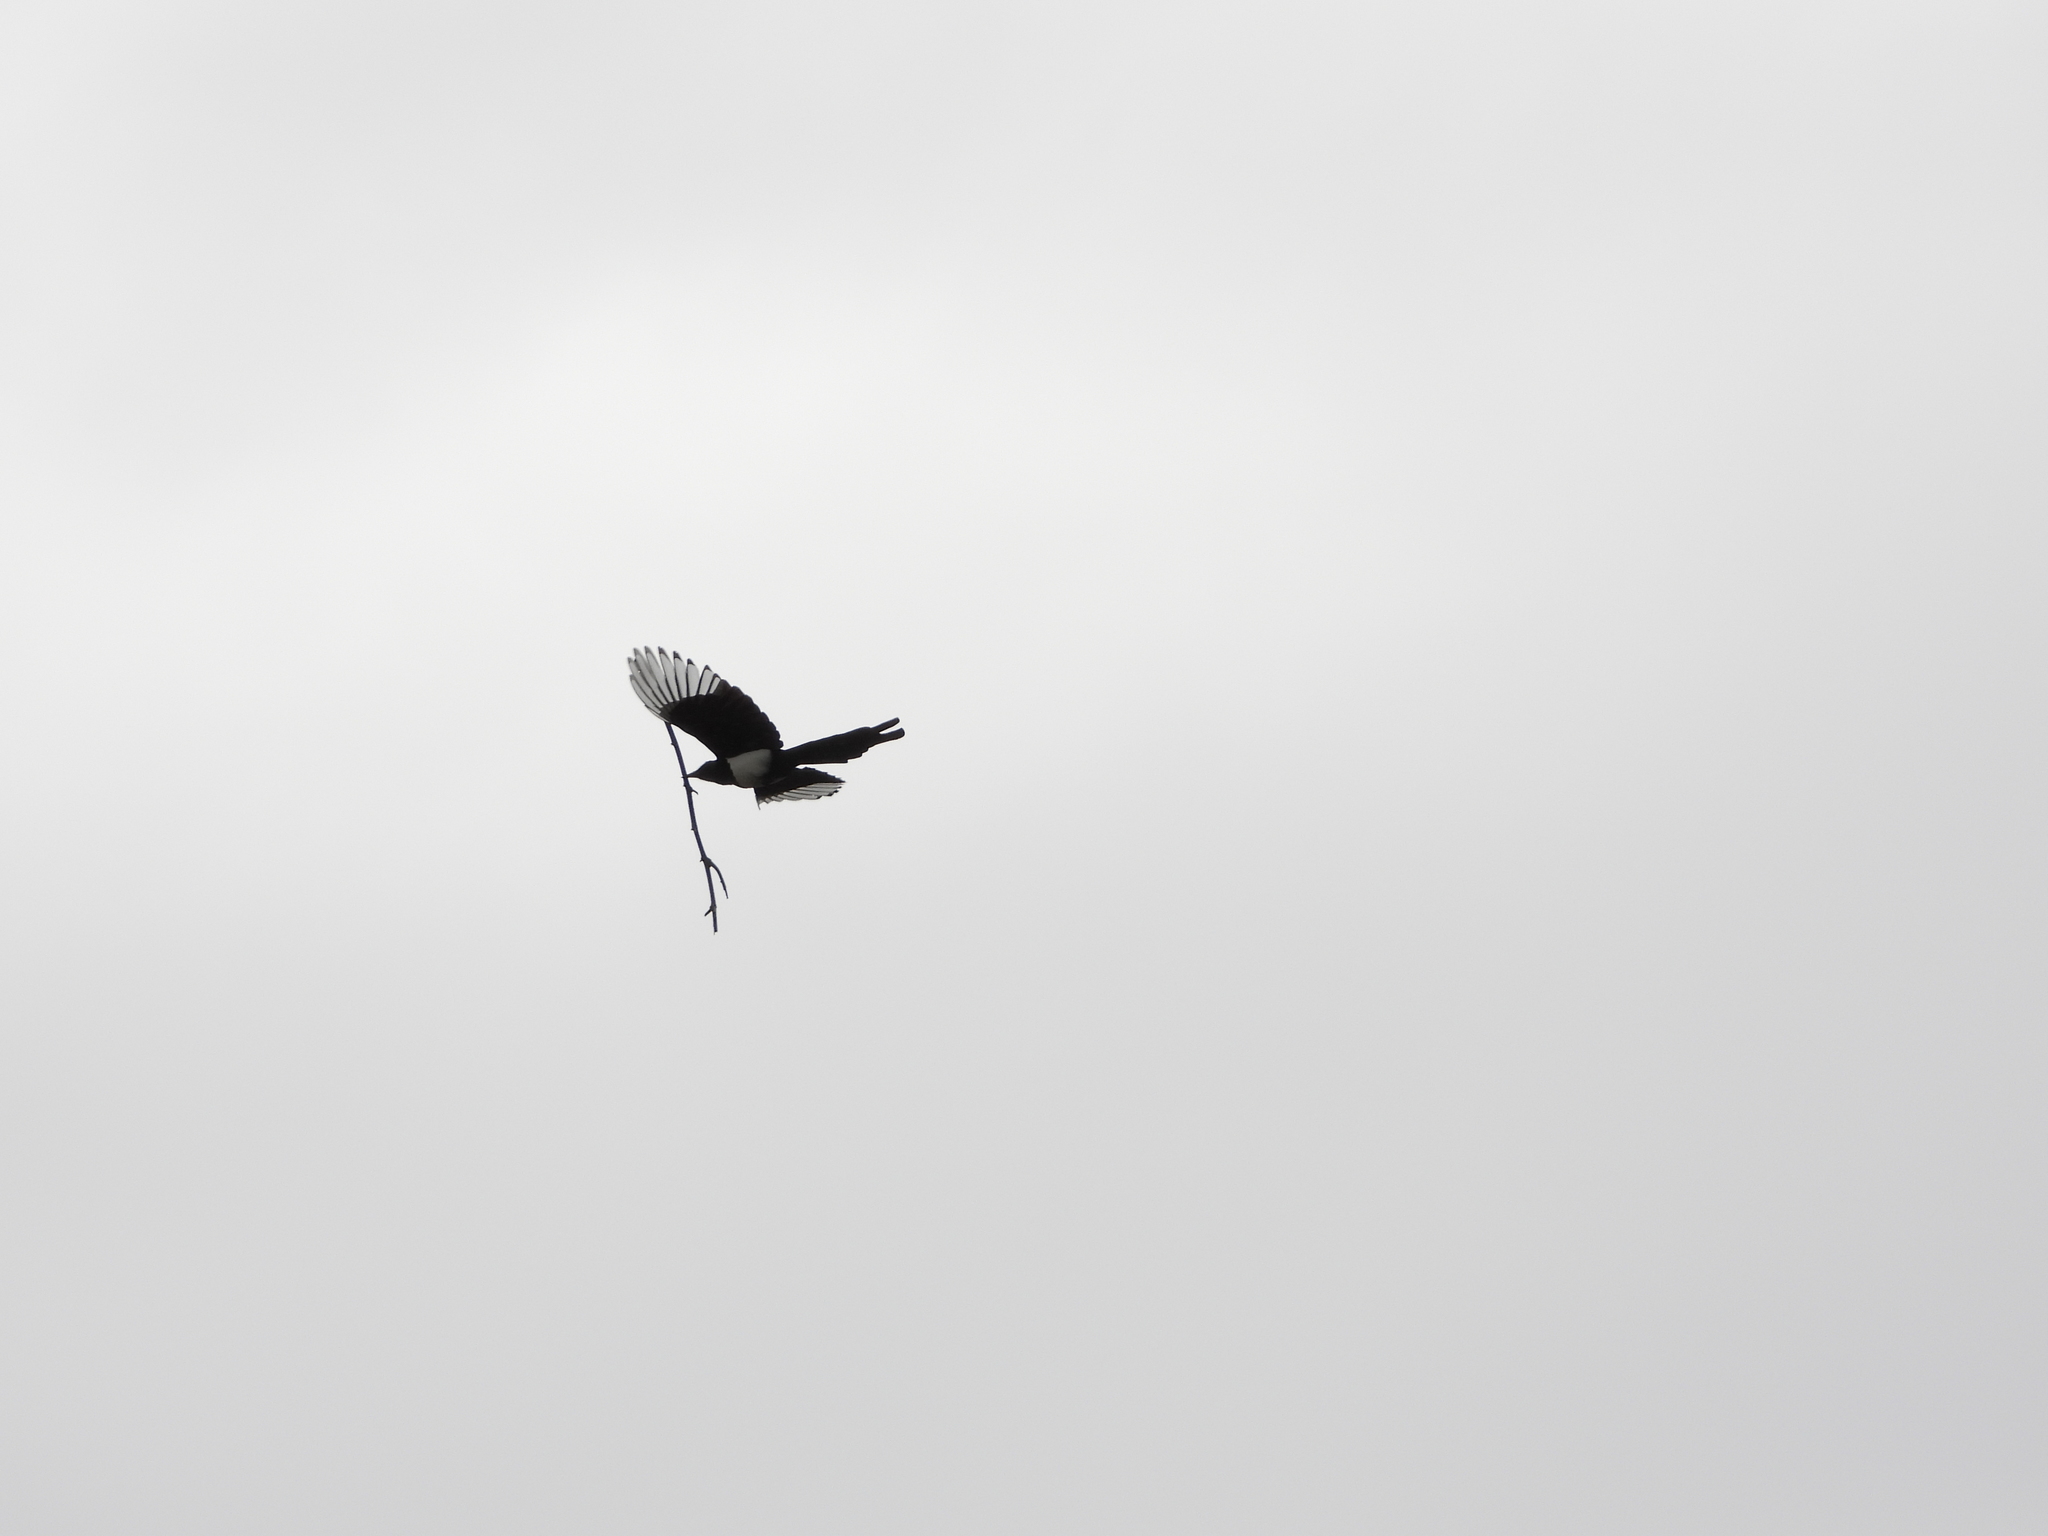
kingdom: Animalia
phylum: Chordata
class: Aves
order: Passeriformes
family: Corvidae
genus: Pica
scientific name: Pica serica
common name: Oriental magpie
